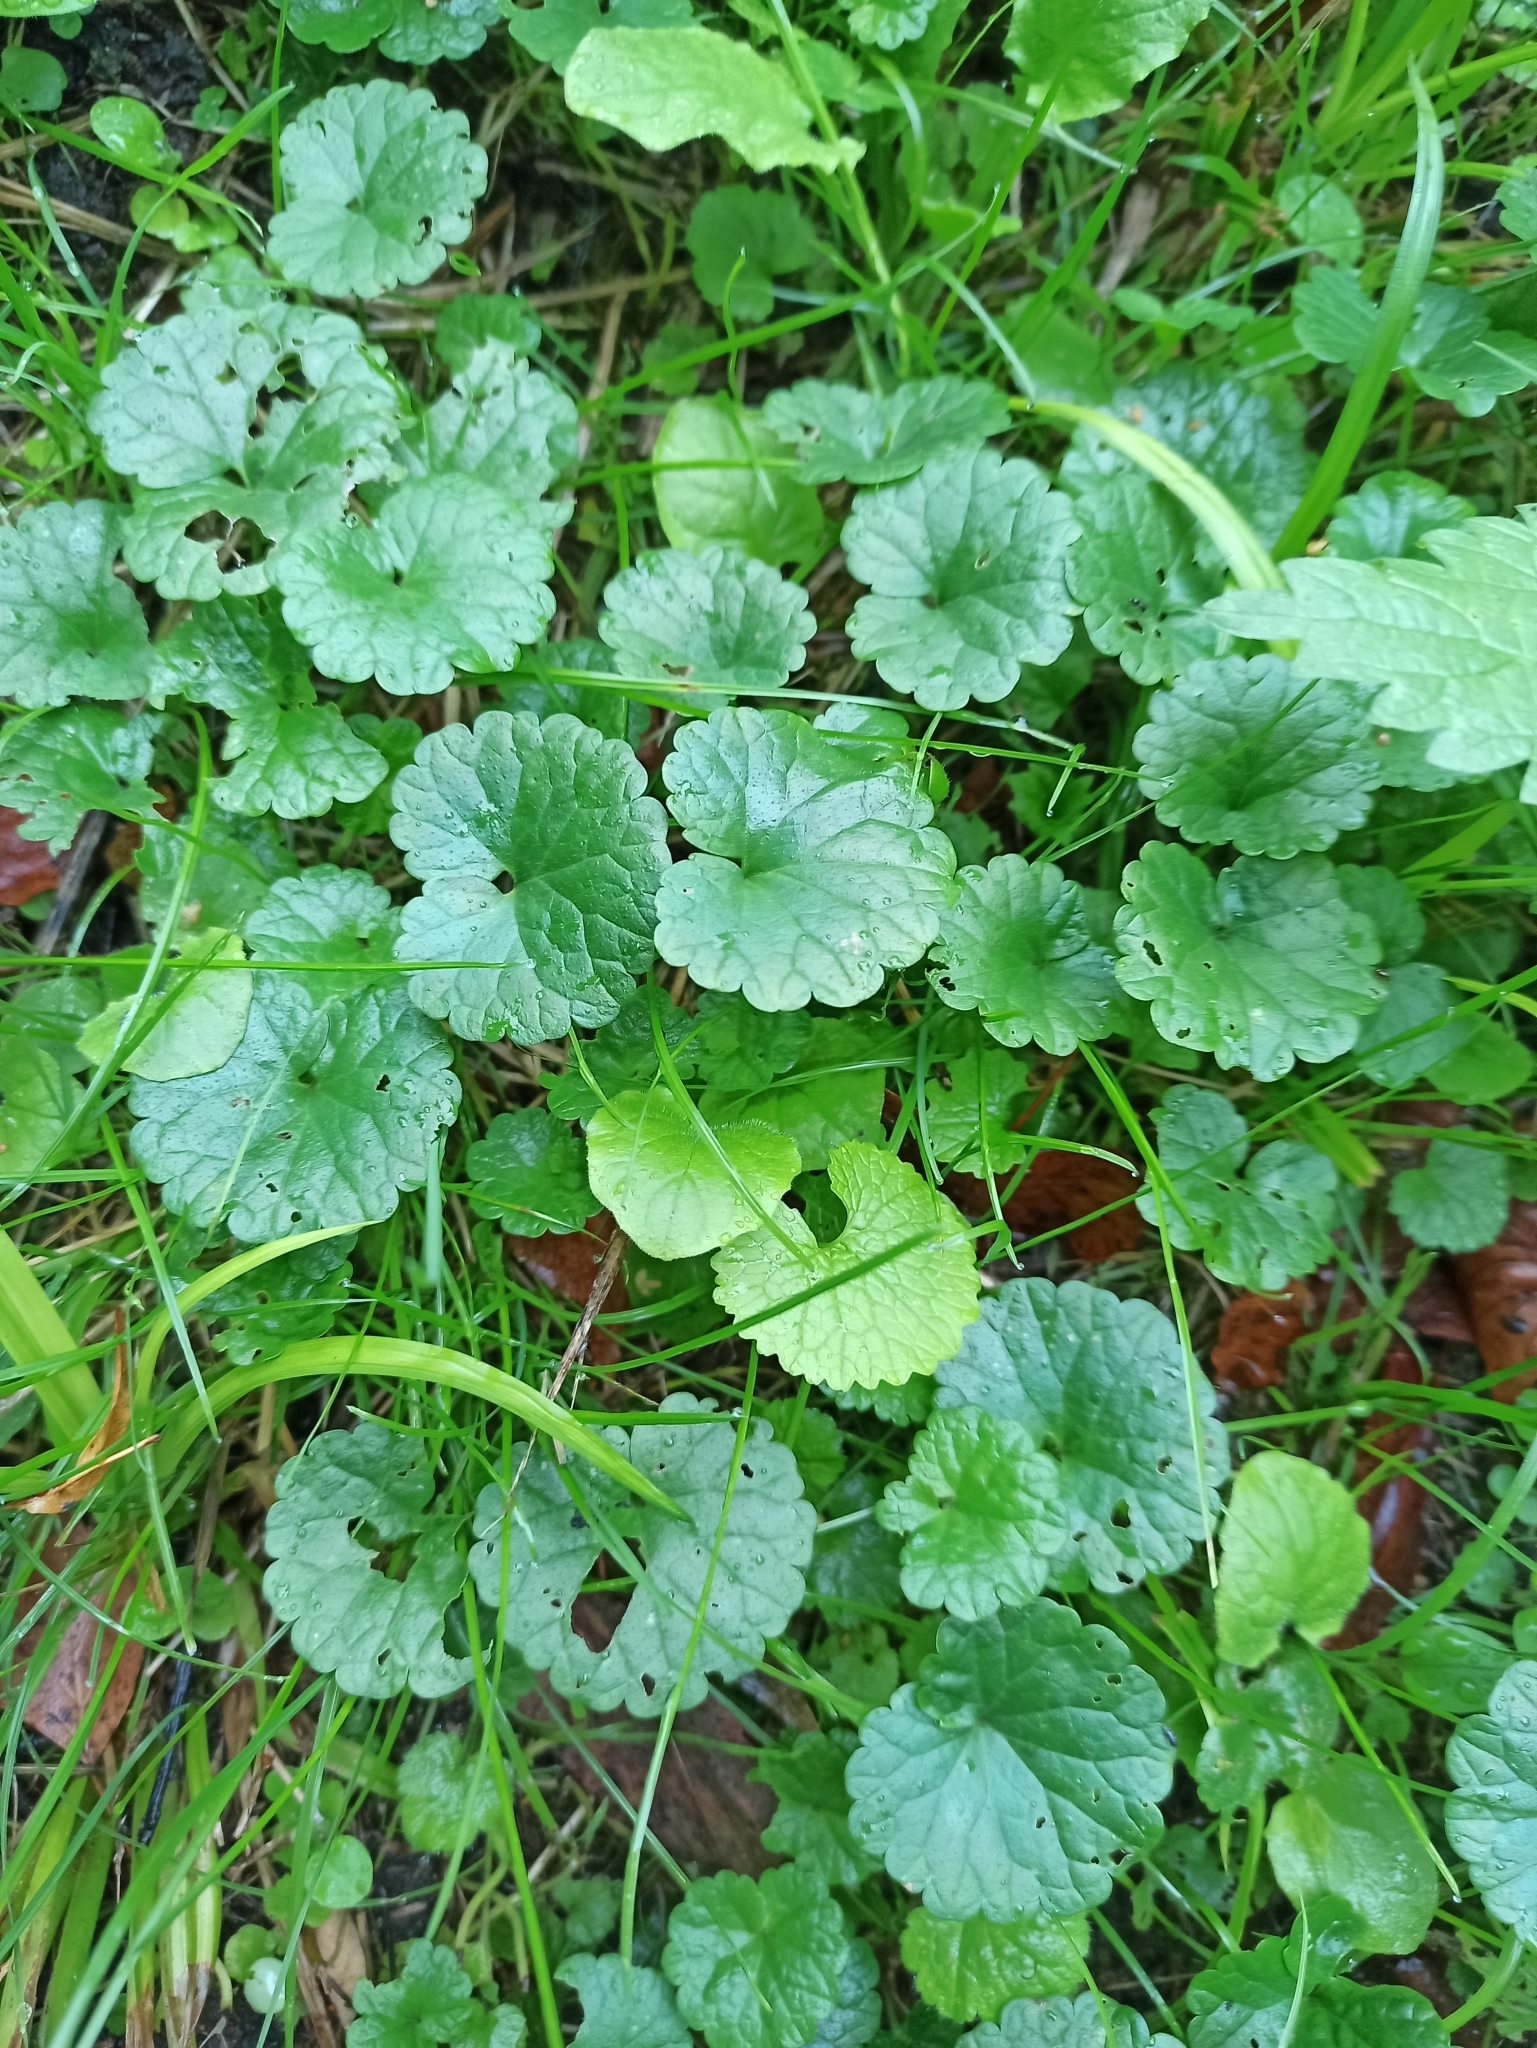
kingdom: Plantae
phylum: Tracheophyta
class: Magnoliopsida
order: Lamiales
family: Lamiaceae
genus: Glechoma
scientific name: Glechoma hederacea
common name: Ground ivy
